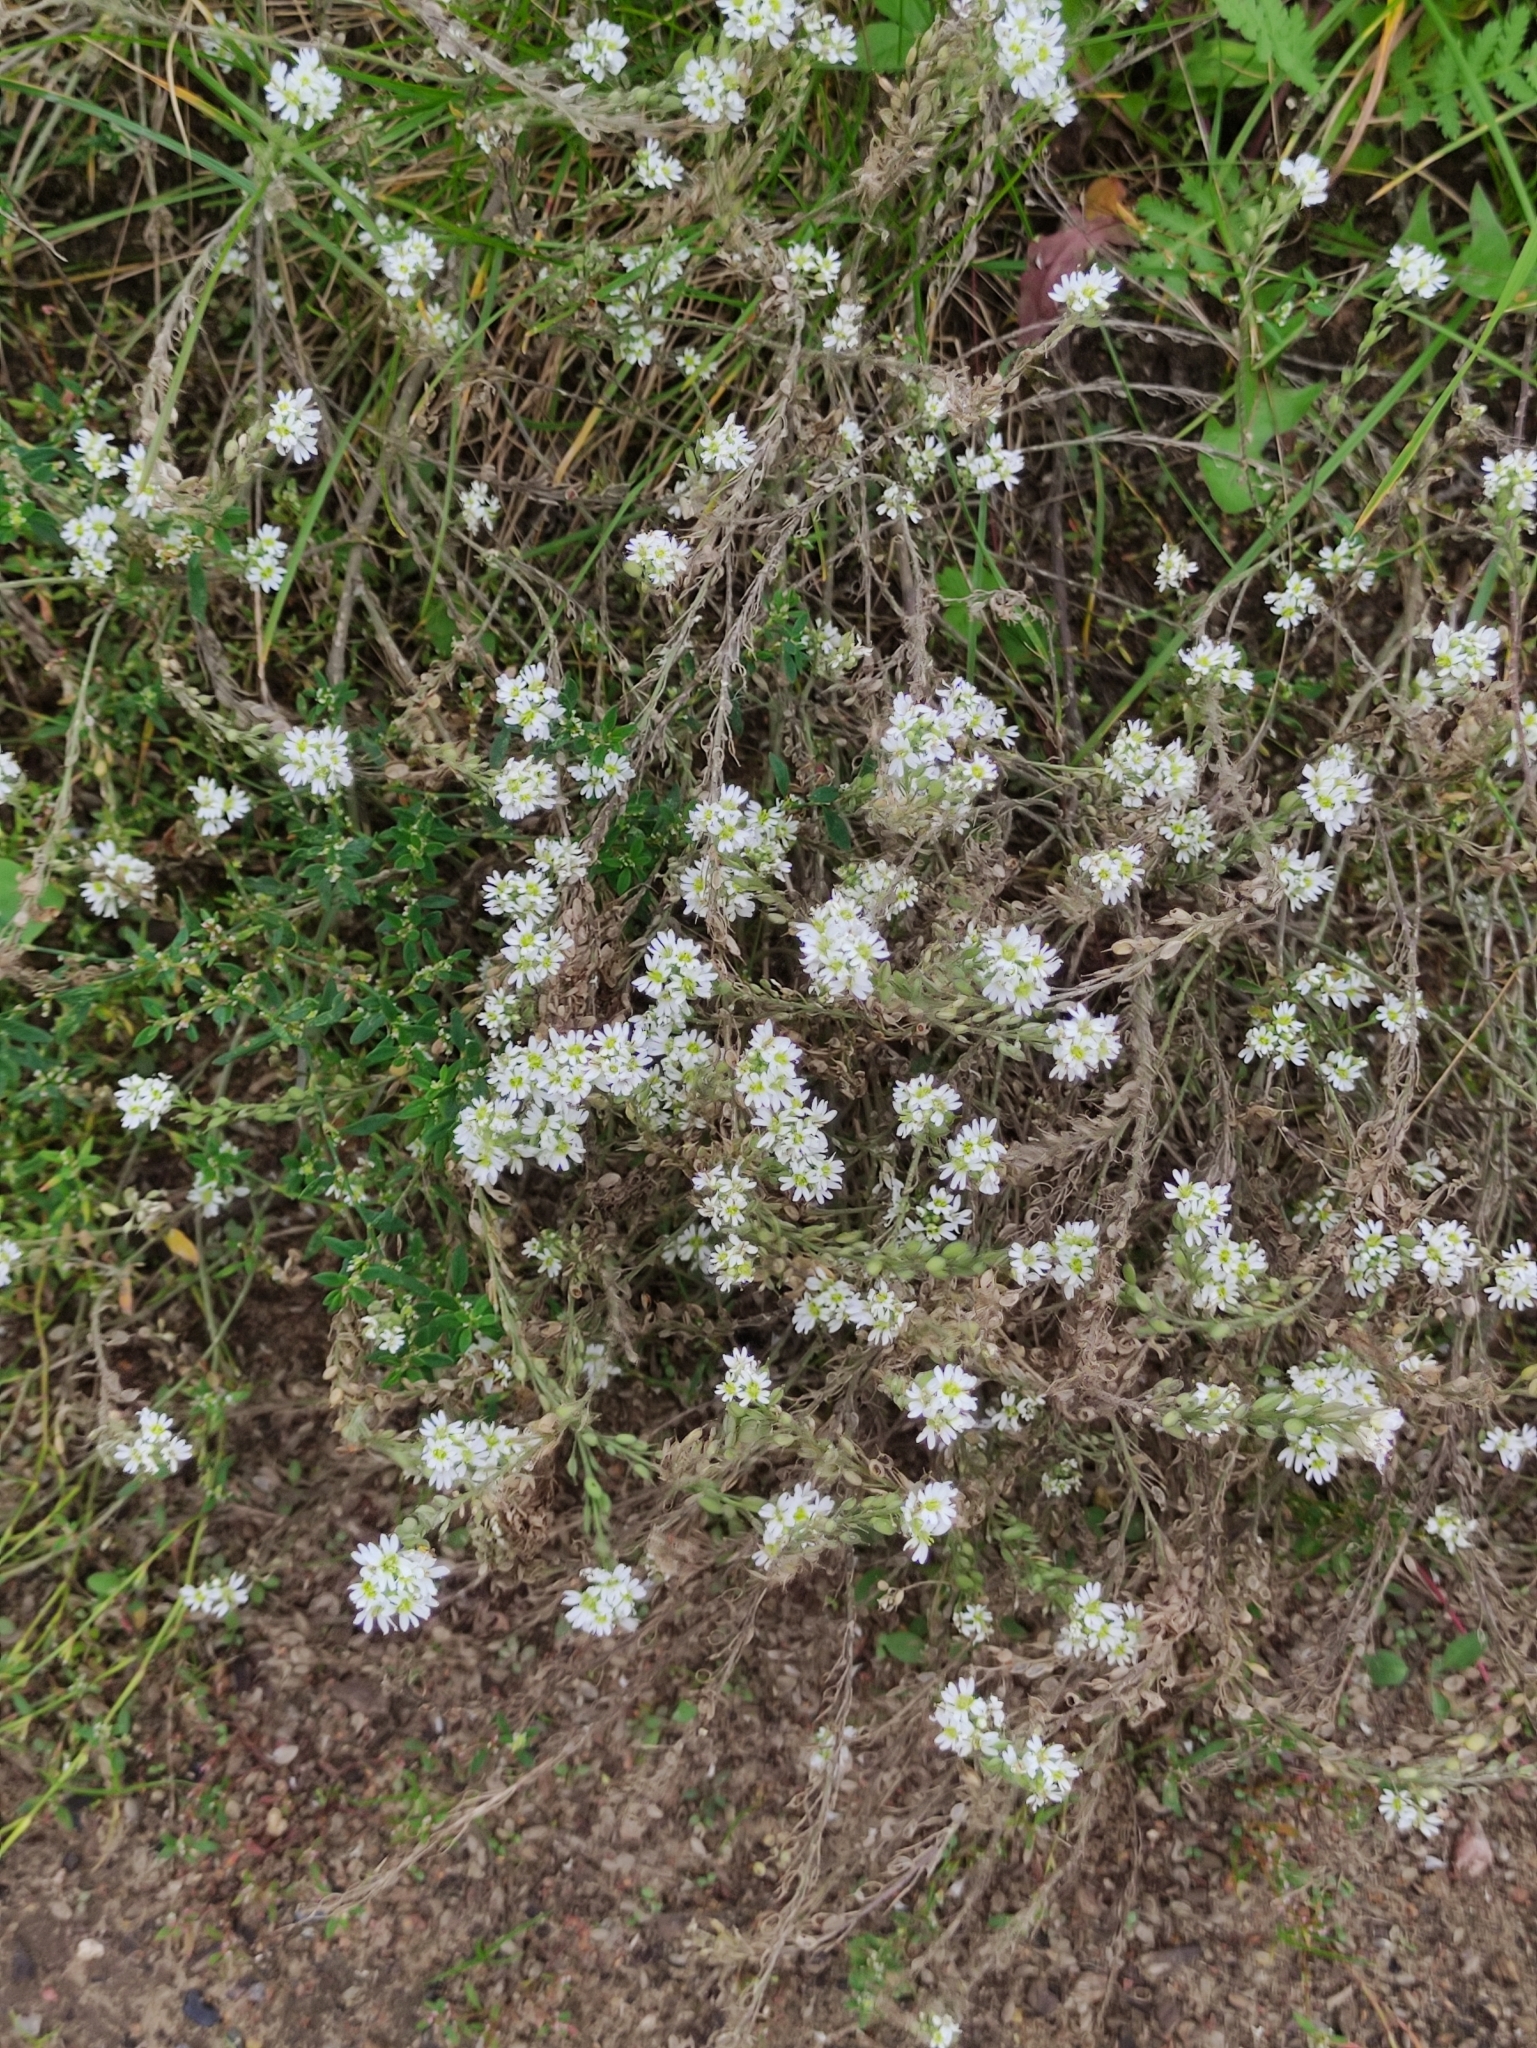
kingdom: Plantae
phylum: Tracheophyta
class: Magnoliopsida
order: Brassicales
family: Brassicaceae
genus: Berteroa
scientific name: Berteroa incana
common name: Hoary alison
